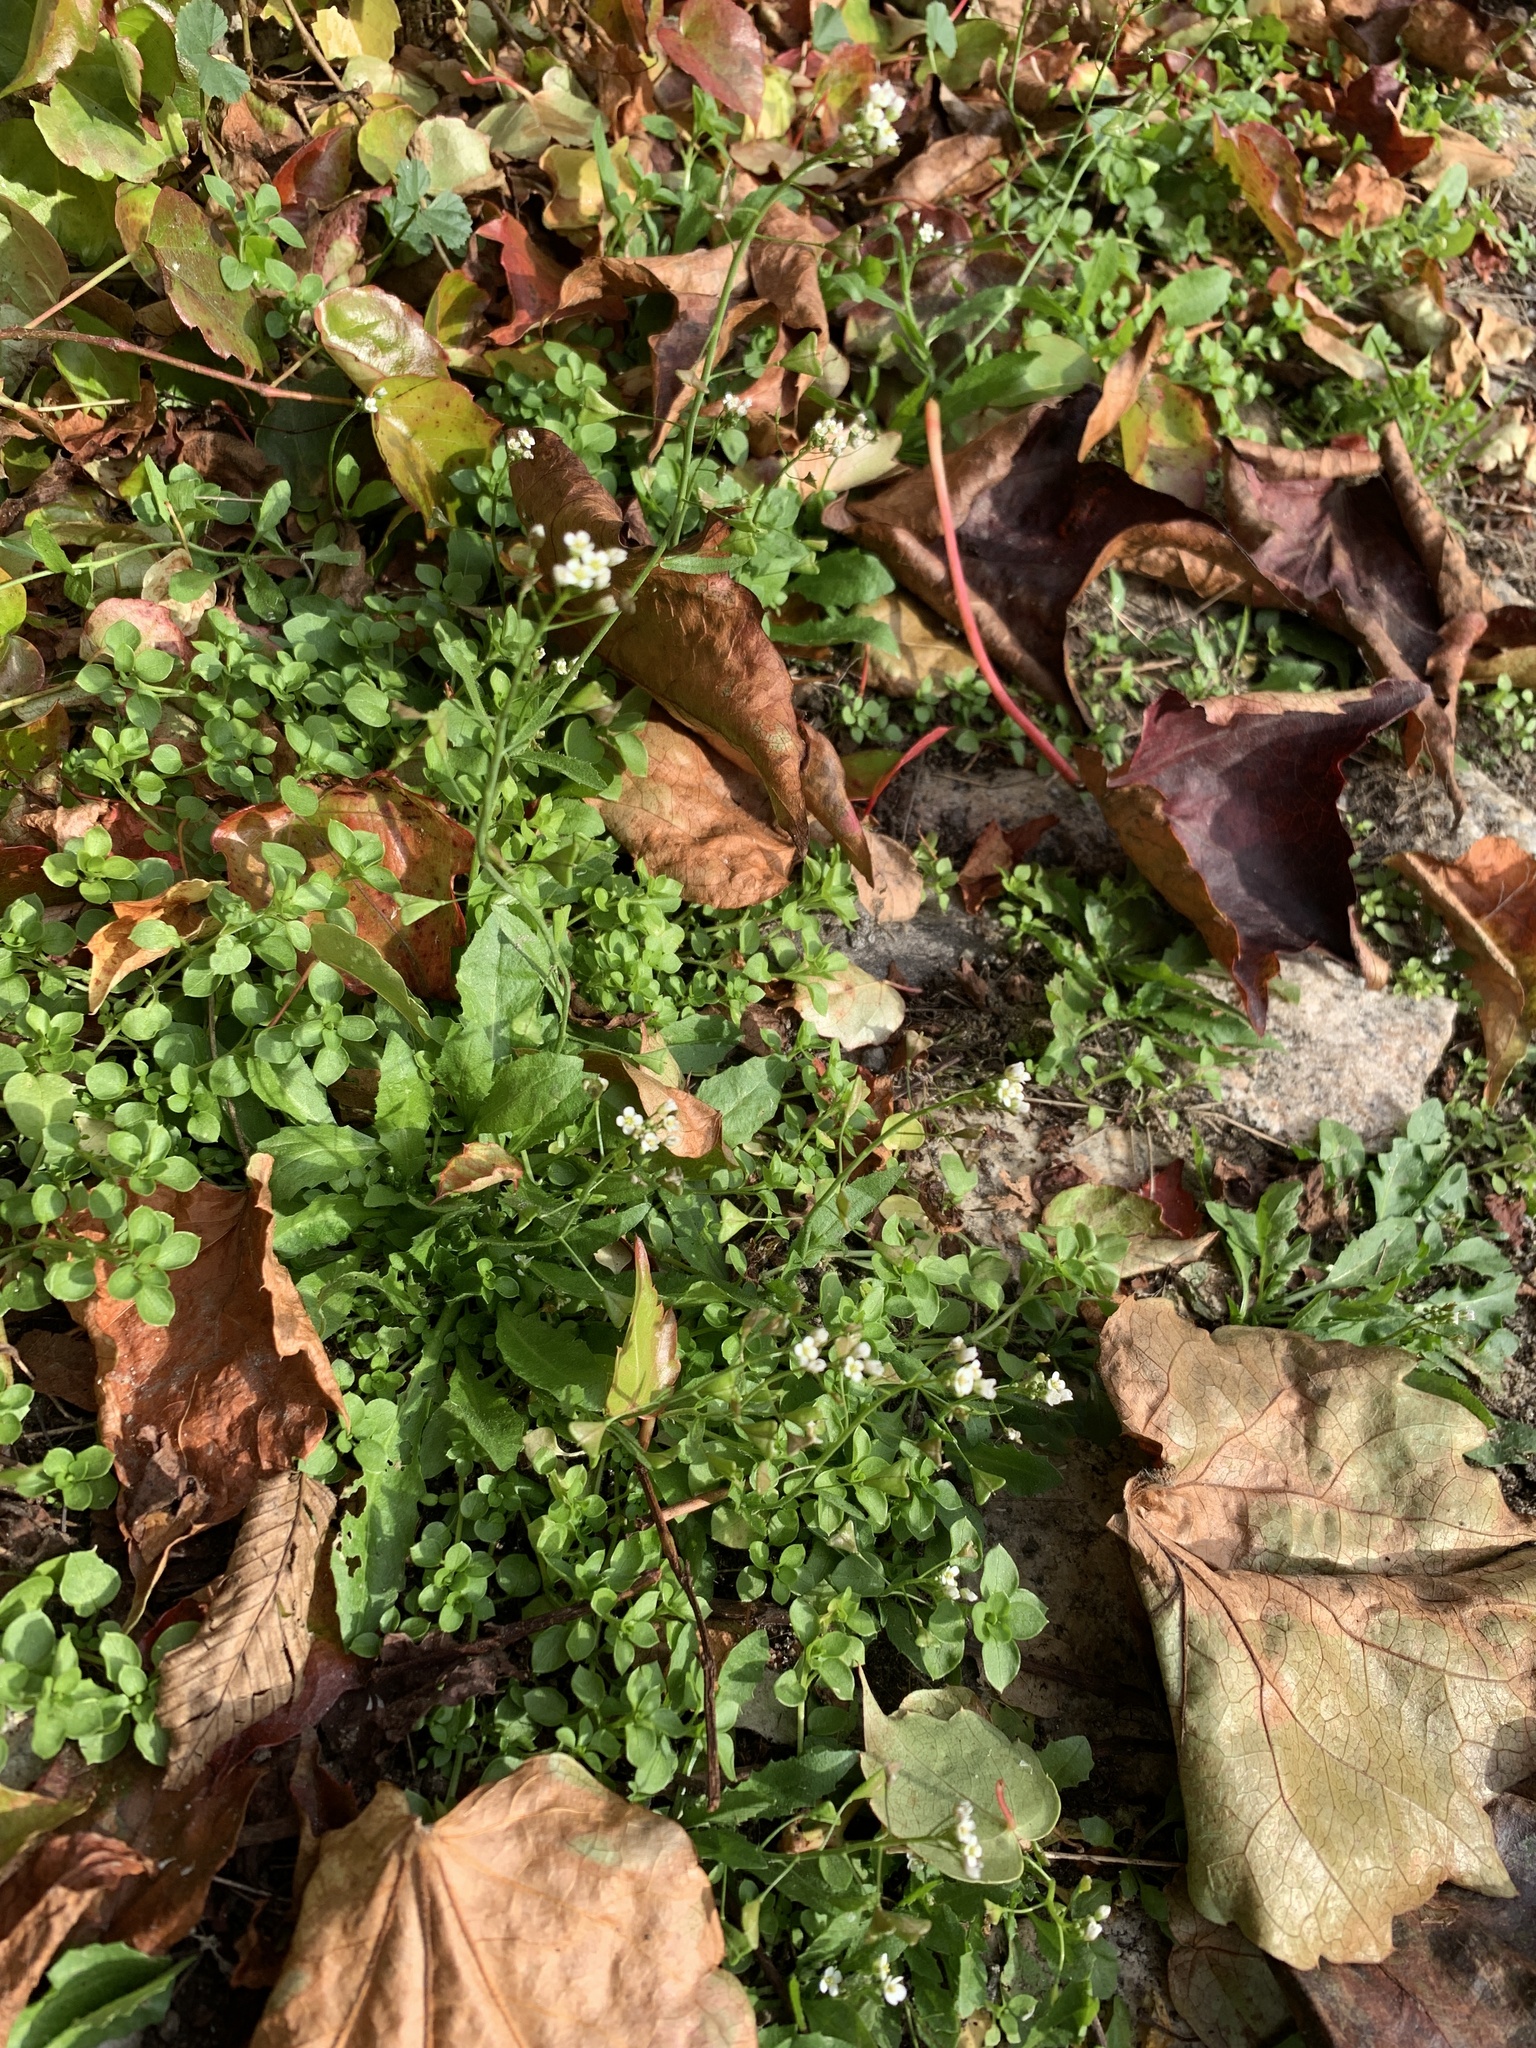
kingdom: Plantae
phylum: Tracheophyta
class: Magnoliopsida
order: Brassicales
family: Brassicaceae
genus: Capsella
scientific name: Capsella bursa-pastoris
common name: Shepherd's purse
